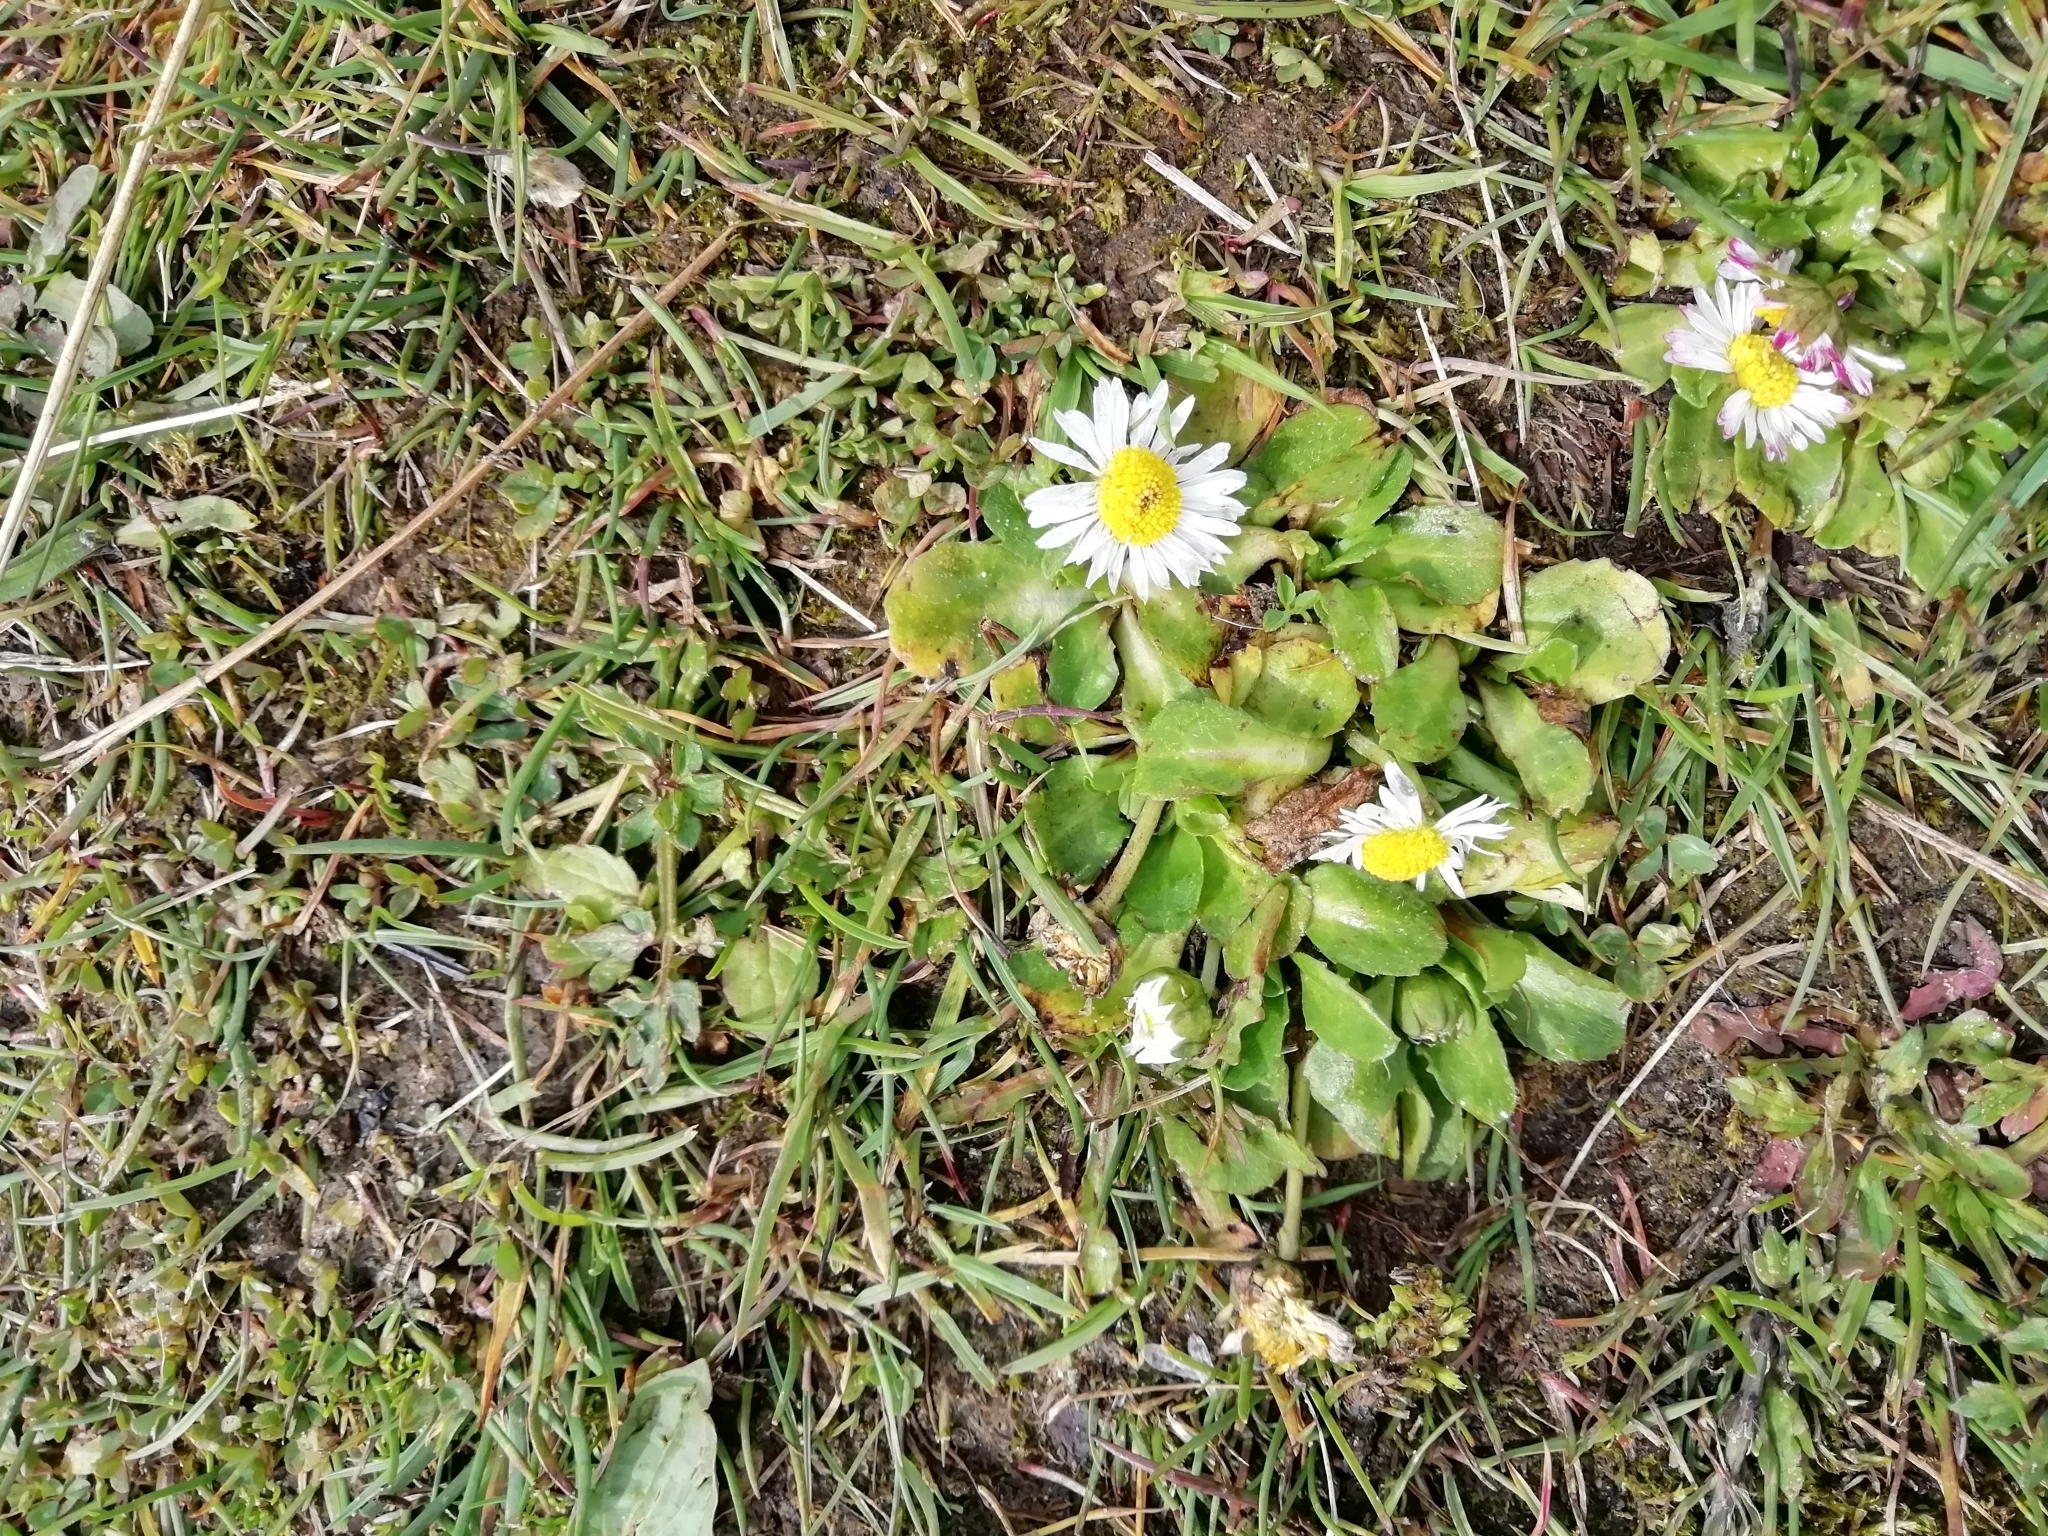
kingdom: Plantae
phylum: Tracheophyta
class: Magnoliopsida
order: Asterales
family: Asteraceae
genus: Bellis
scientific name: Bellis perennis
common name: Lawndaisy
